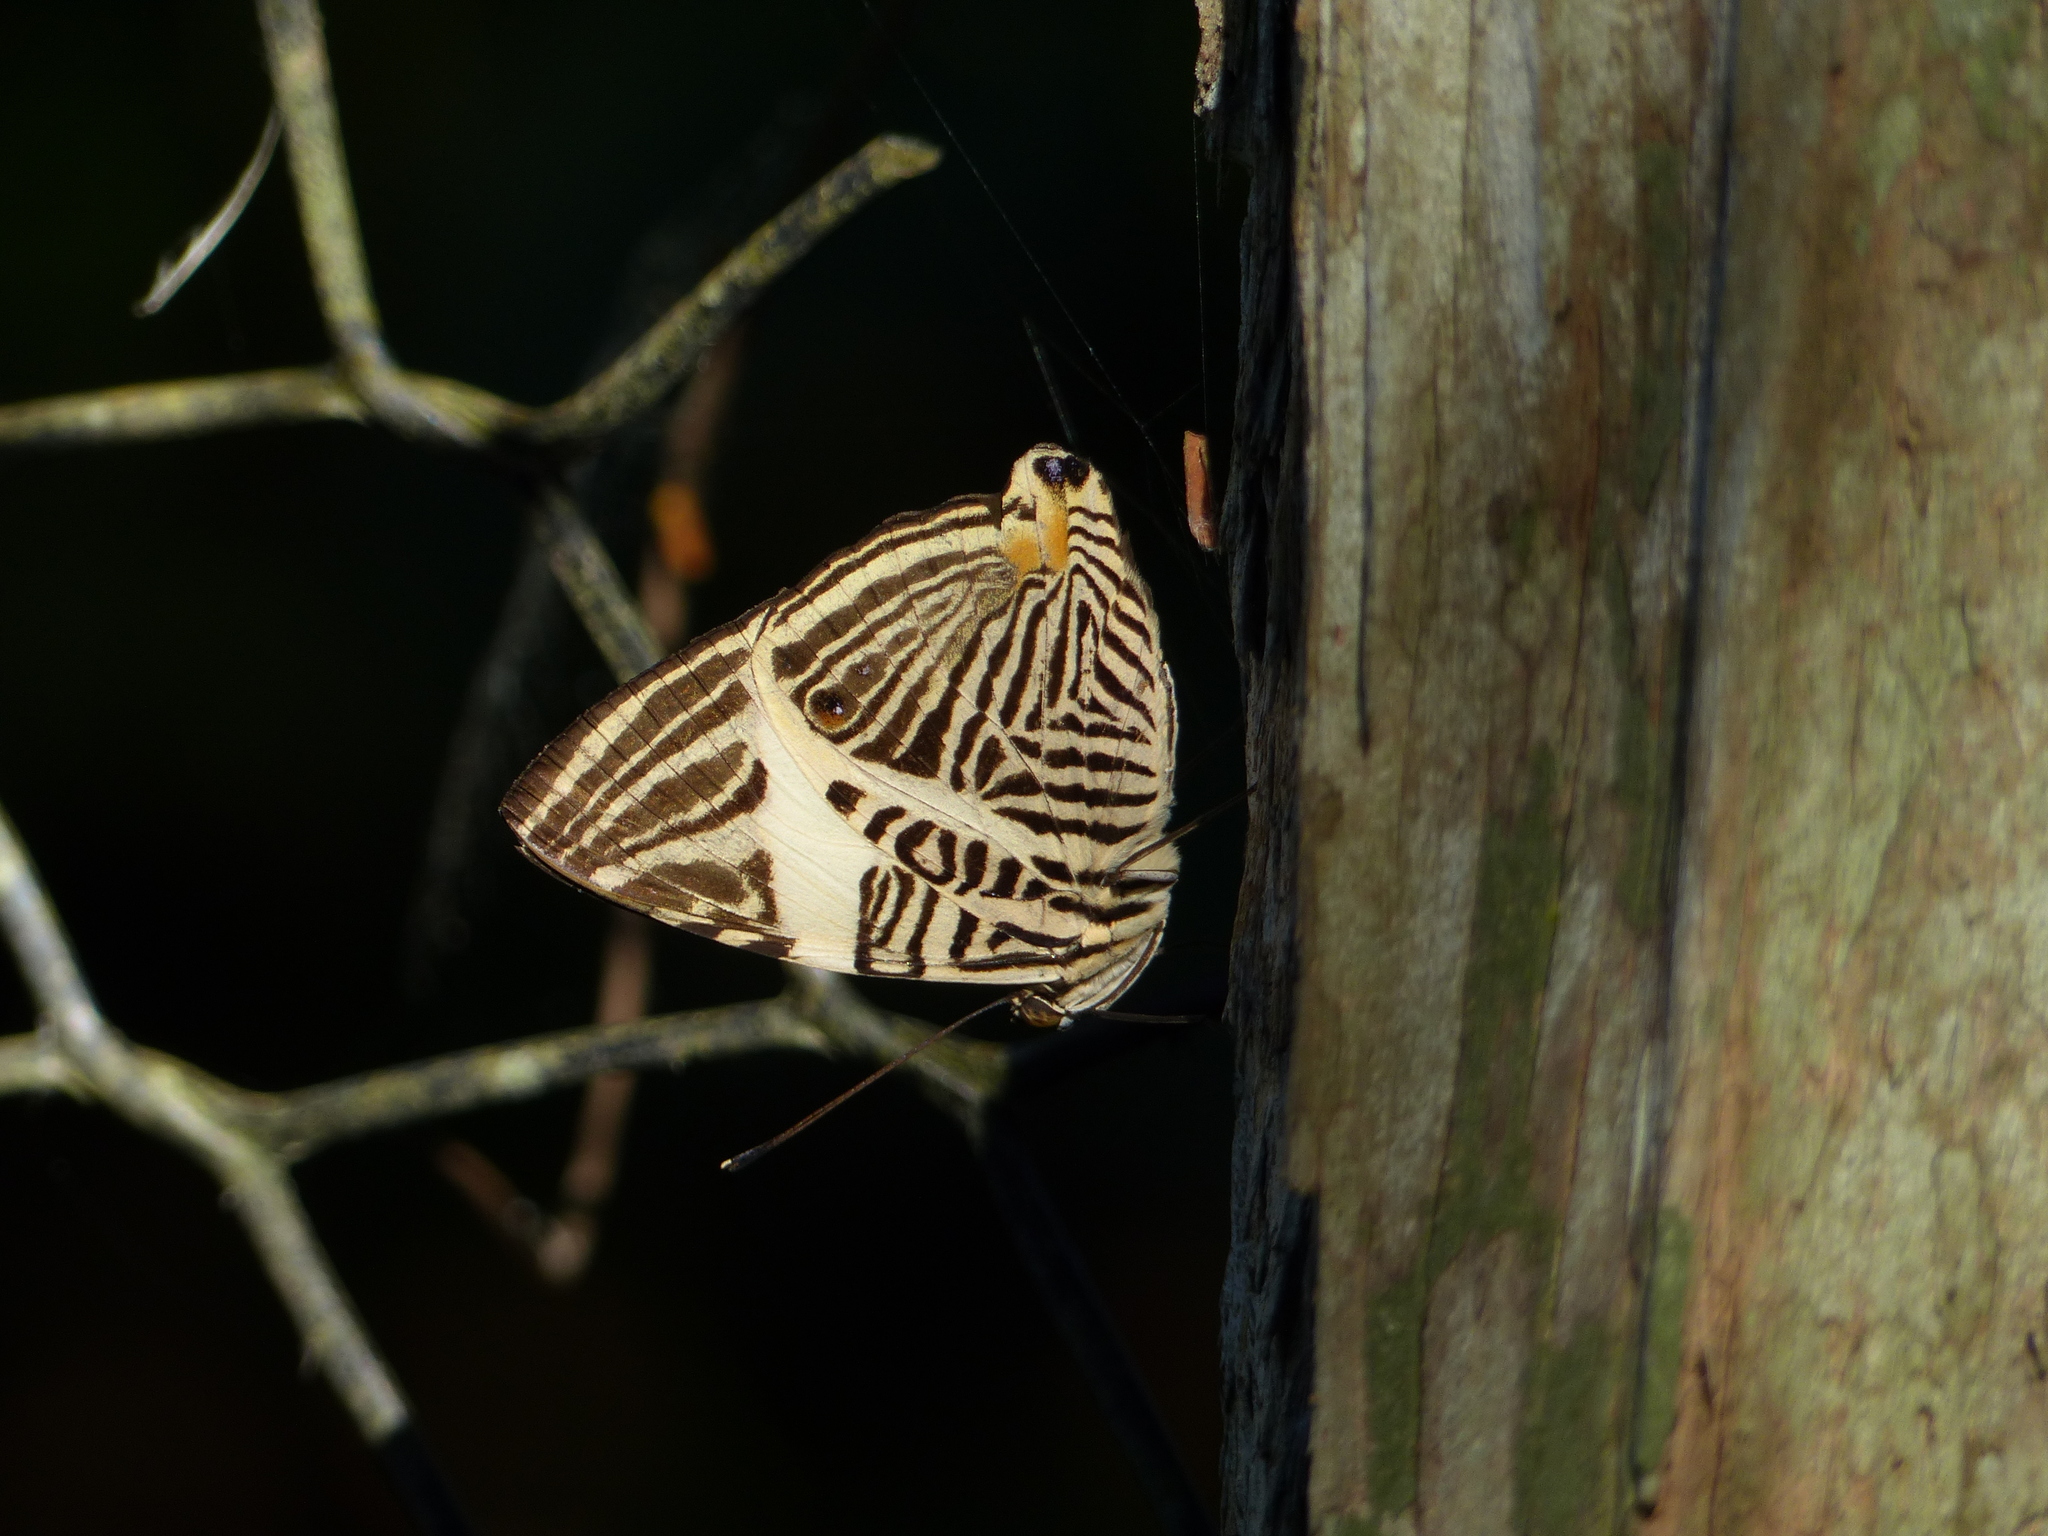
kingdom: Animalia
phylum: Arthropoda
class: Insecta
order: Lepidoptera
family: Nymphalidae
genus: Colobura
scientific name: Colobura dirce
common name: Dirce beauty
